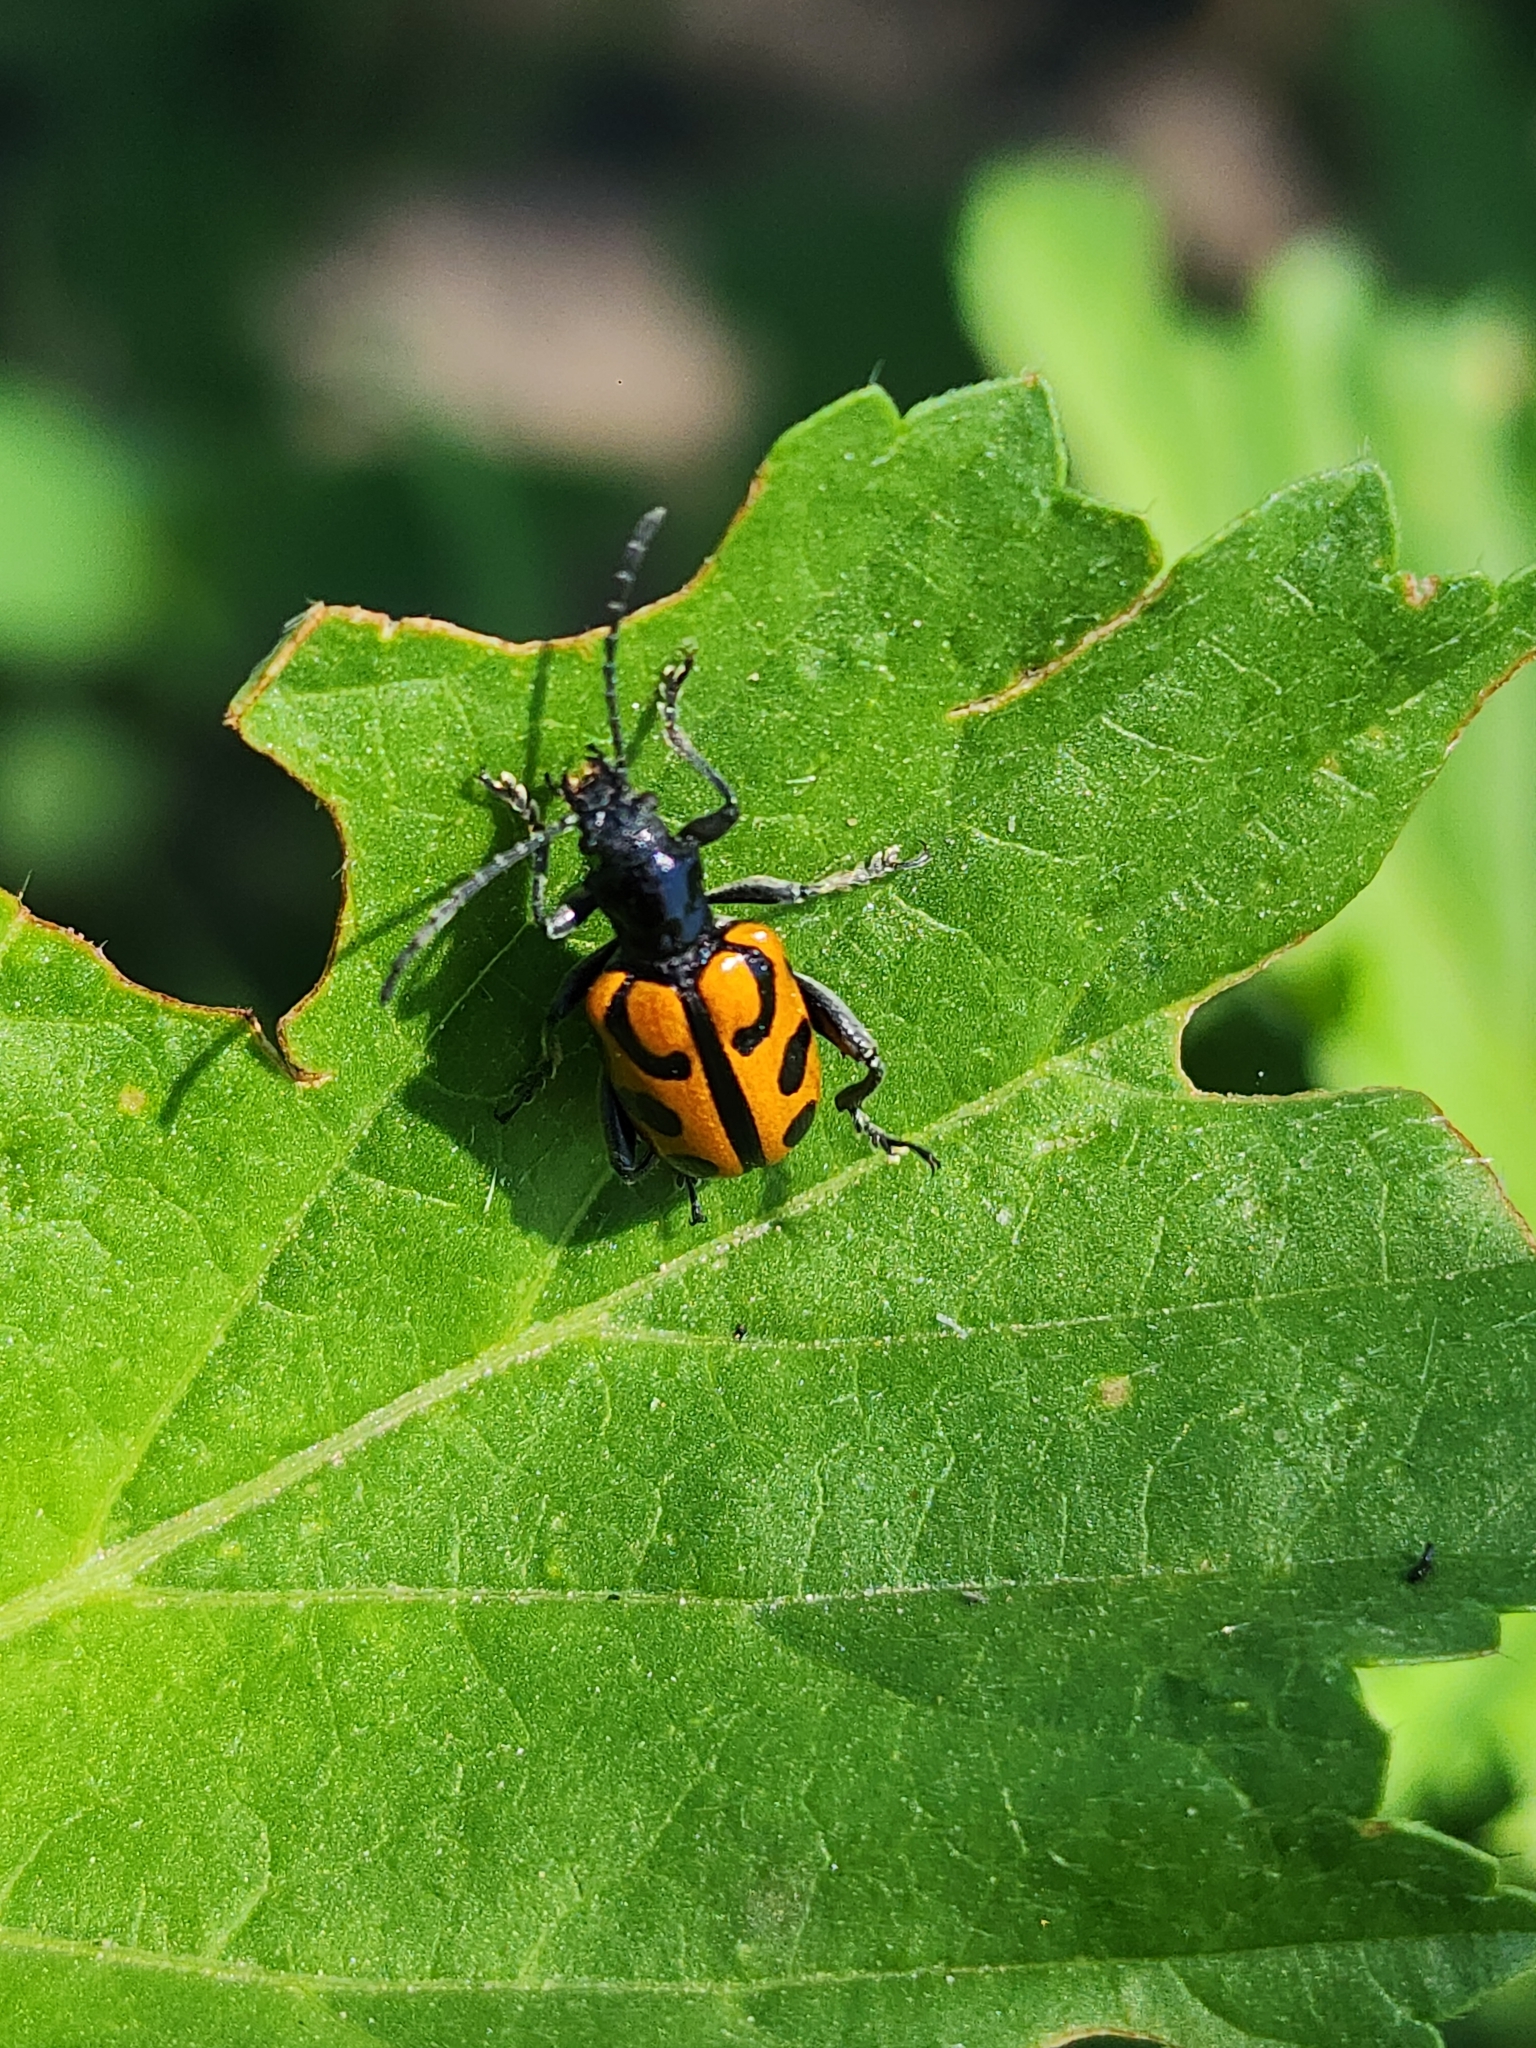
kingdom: Animalia
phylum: Arthropoda
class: Insecta
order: Coleoptera
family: Chrysomelidae
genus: Atalasis
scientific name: Atalasis
